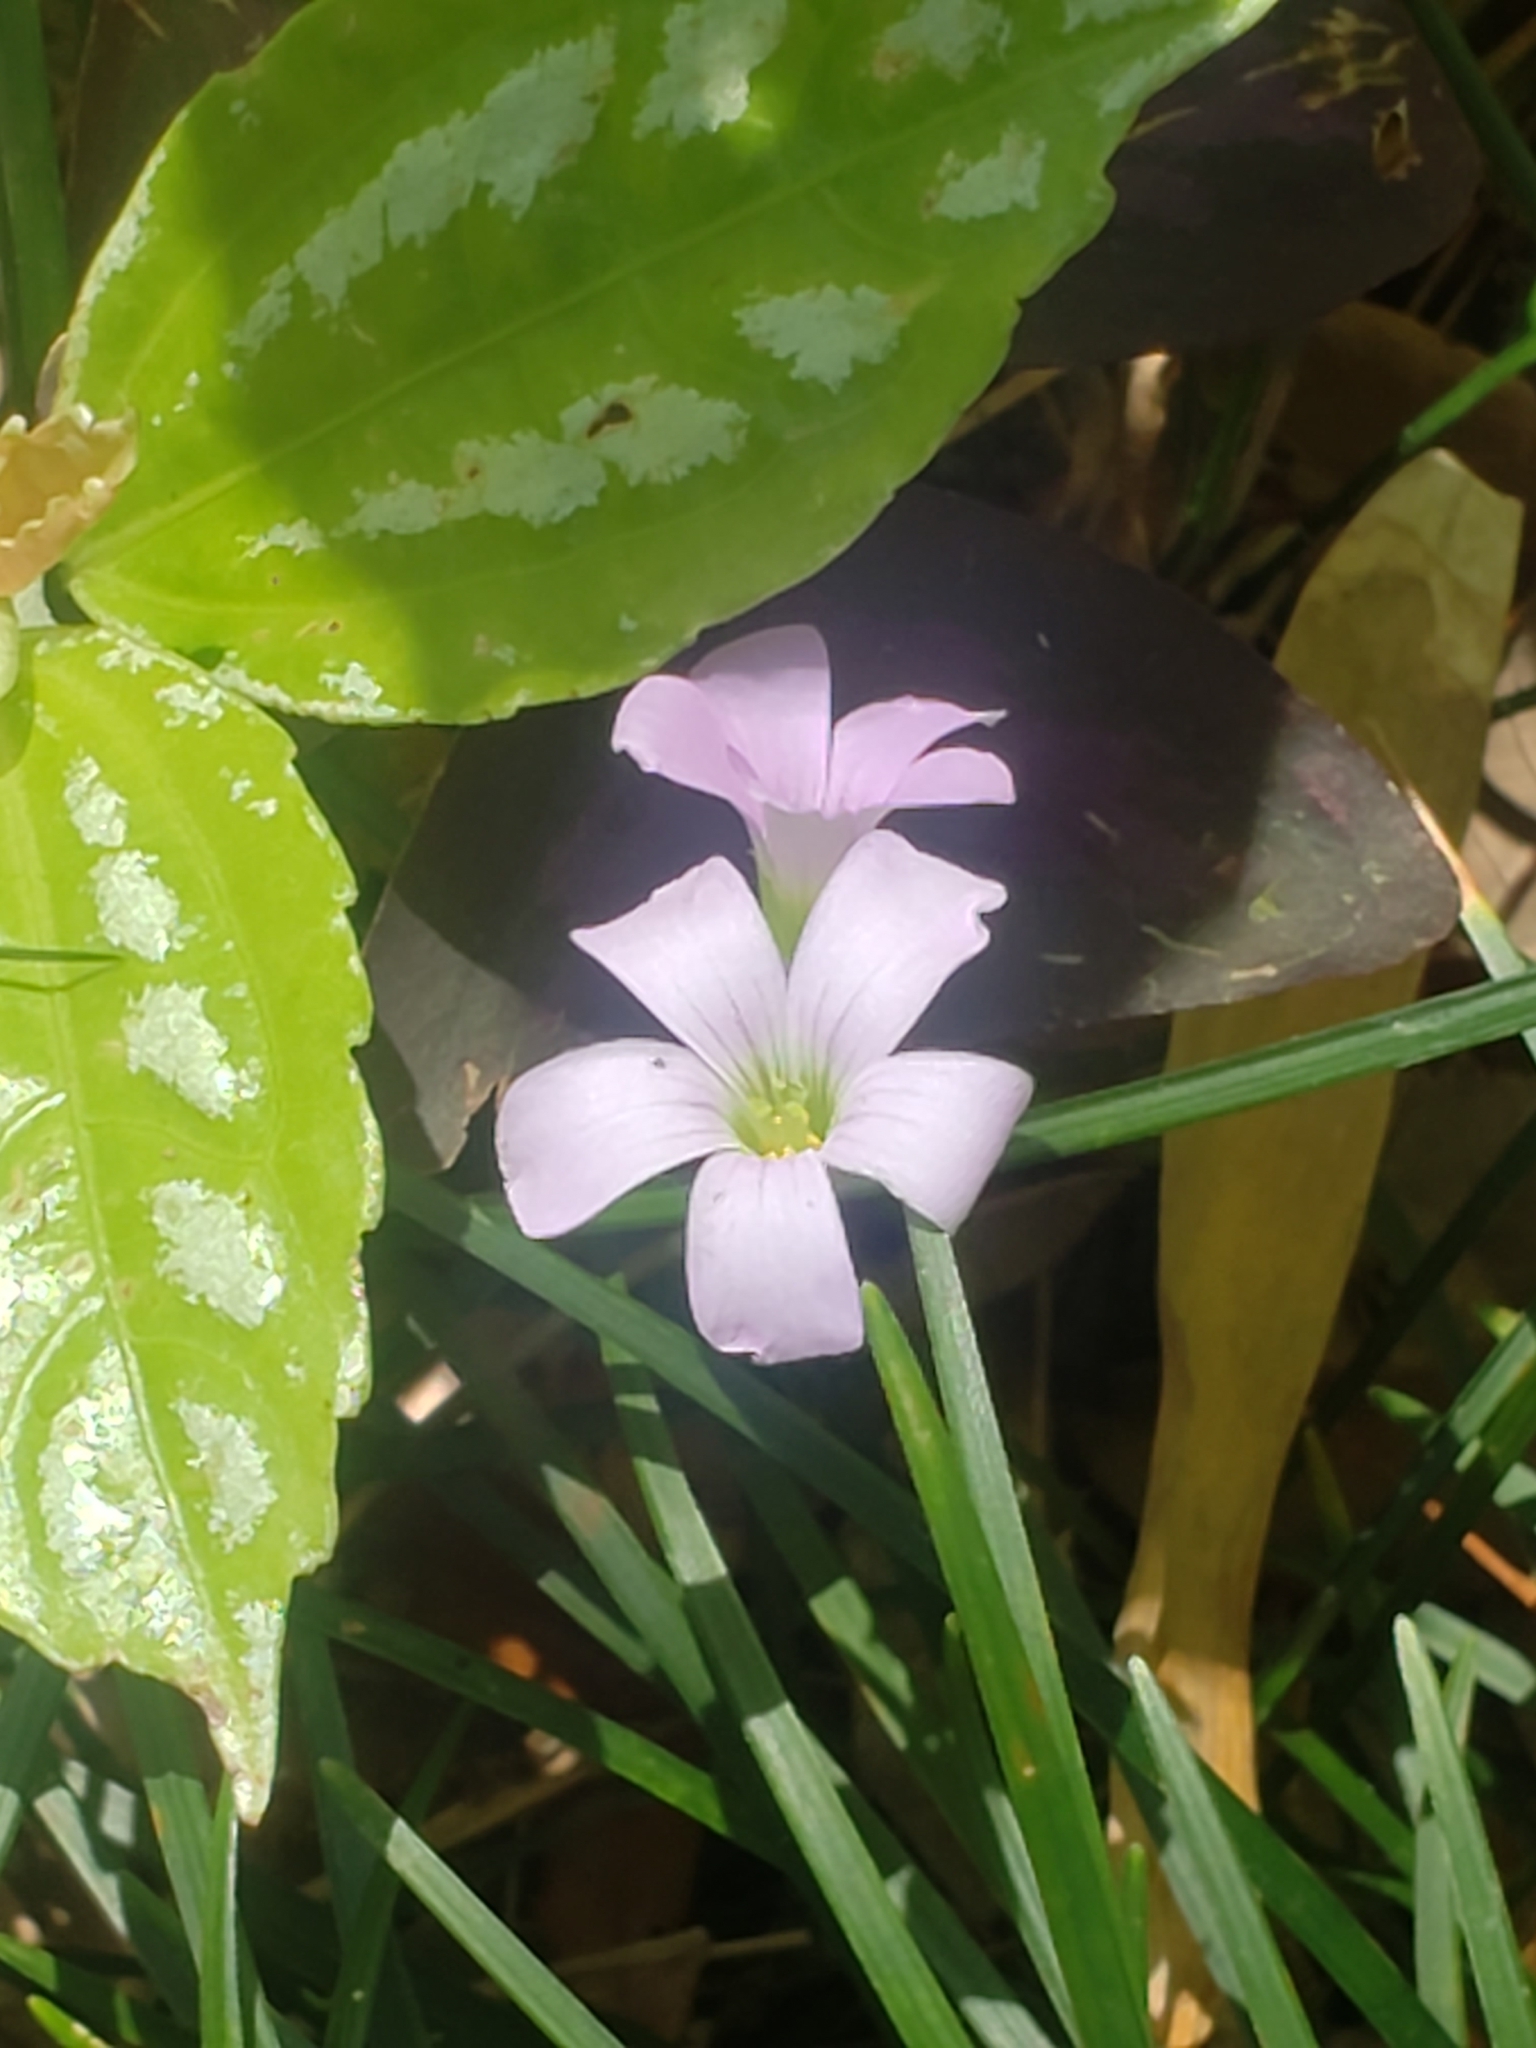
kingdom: Plantae
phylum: Tracheophyta
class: Magnoliopsida
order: Oxalidales
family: Oxalidaceae
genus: Oxalis
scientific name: Oxalis triangularis
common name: Wood sorrel
